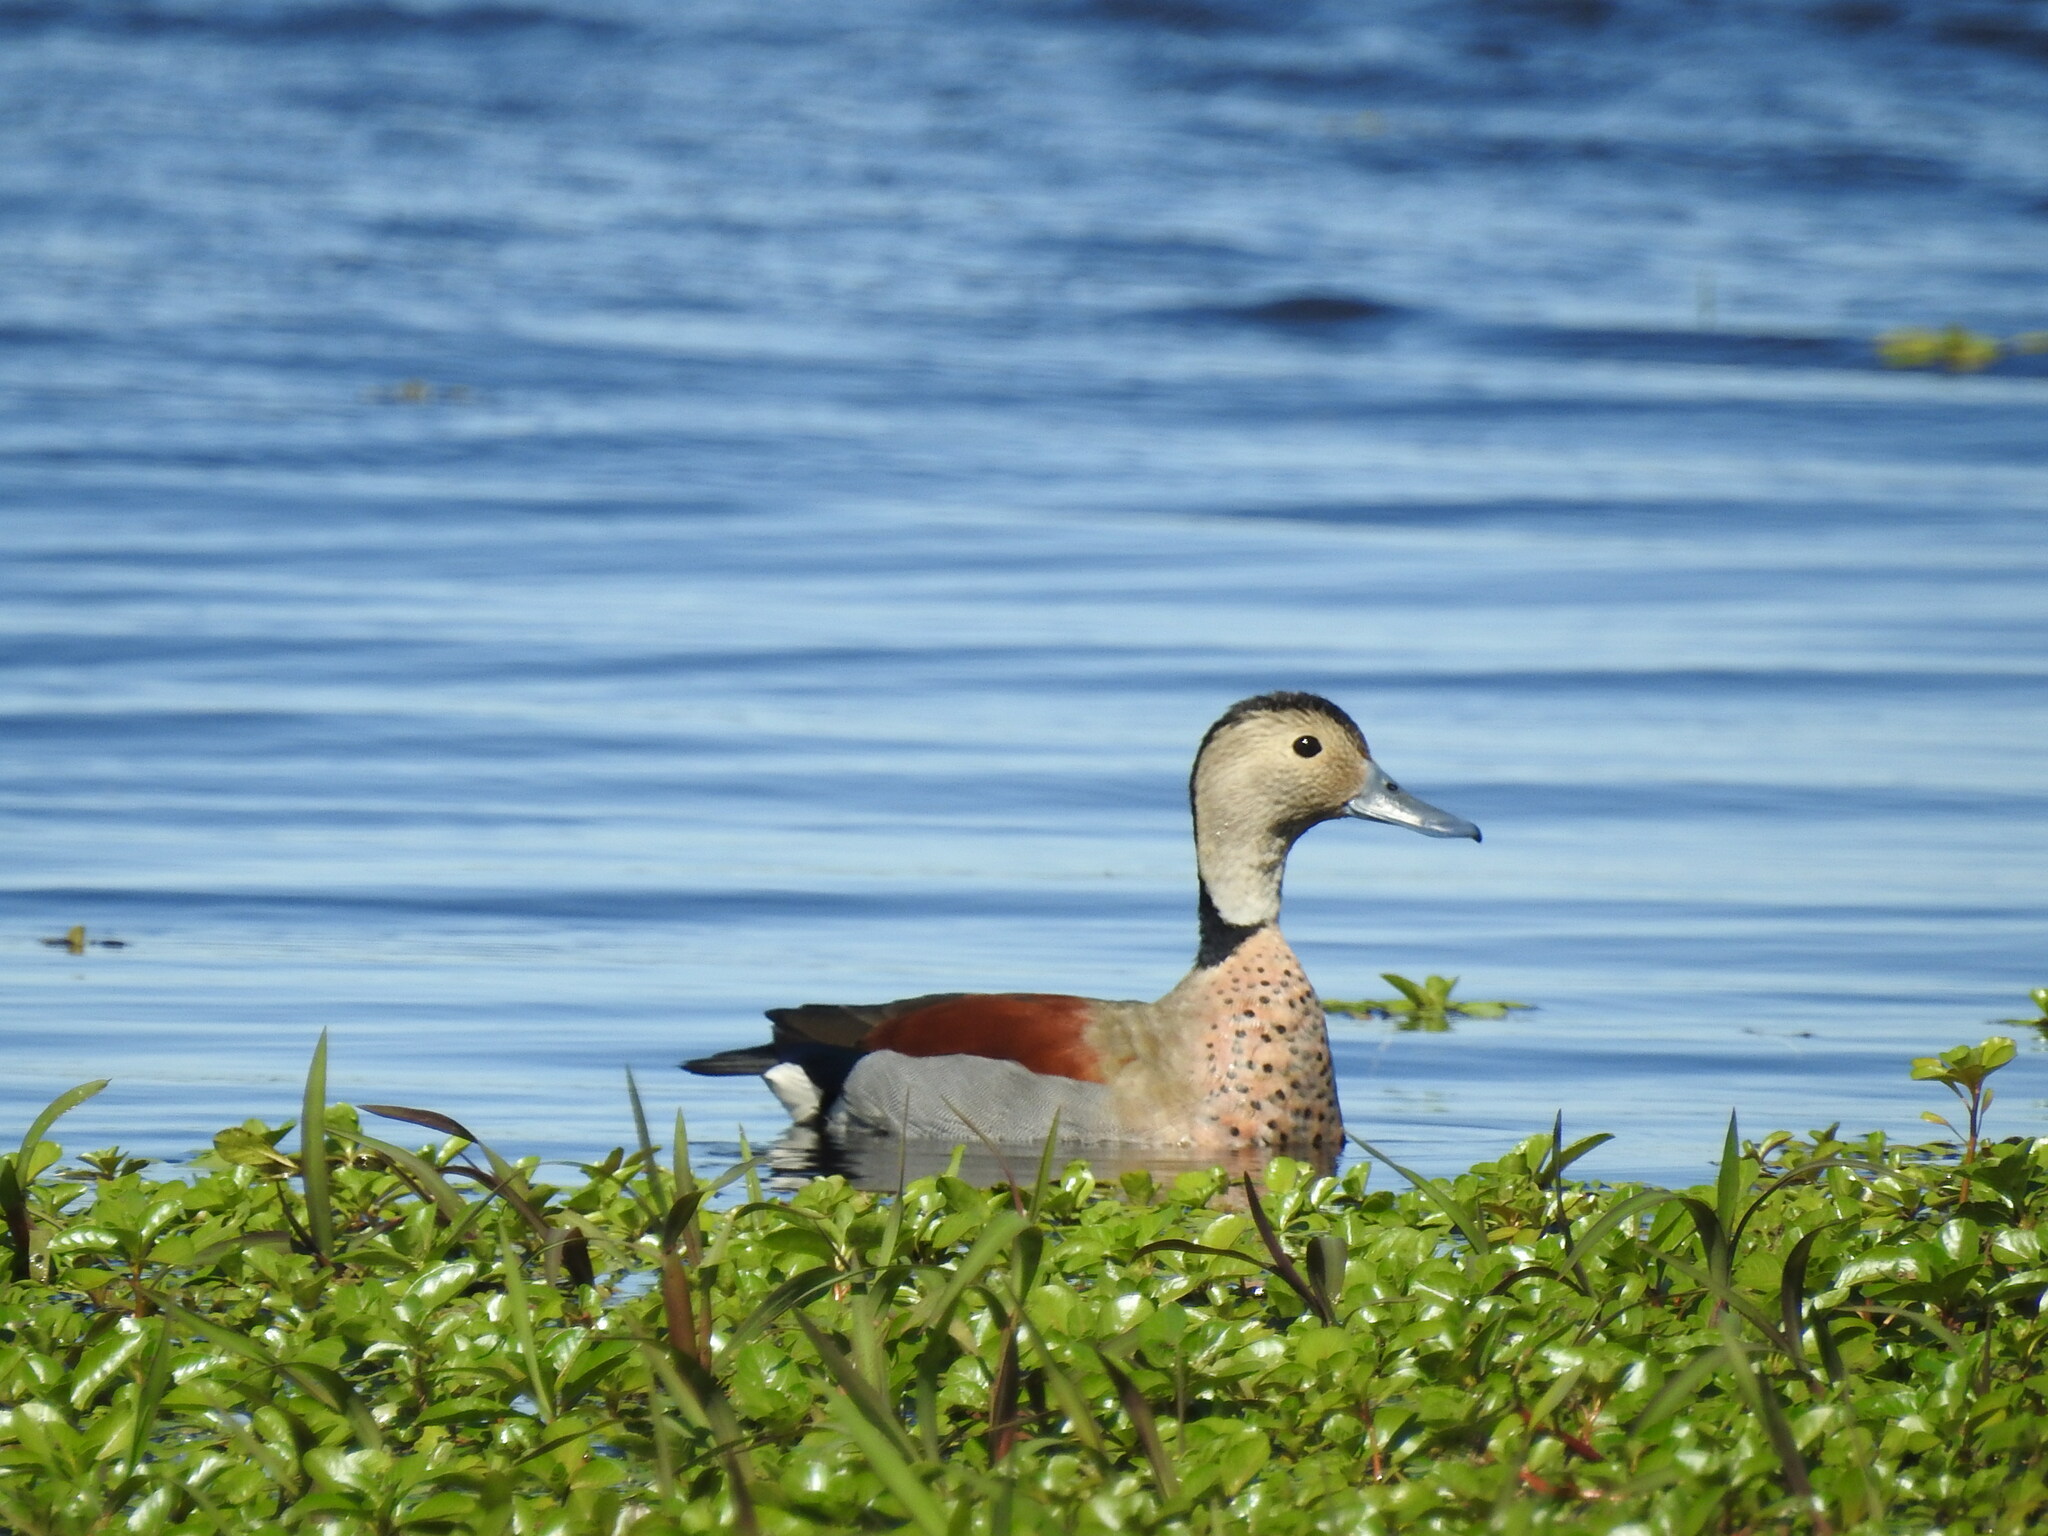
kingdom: Animalia
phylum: Chordata
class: Aves
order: Anseriformes
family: Anatidae
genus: Callonetta
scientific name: Callonetta leucophrys
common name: Ringed teal
